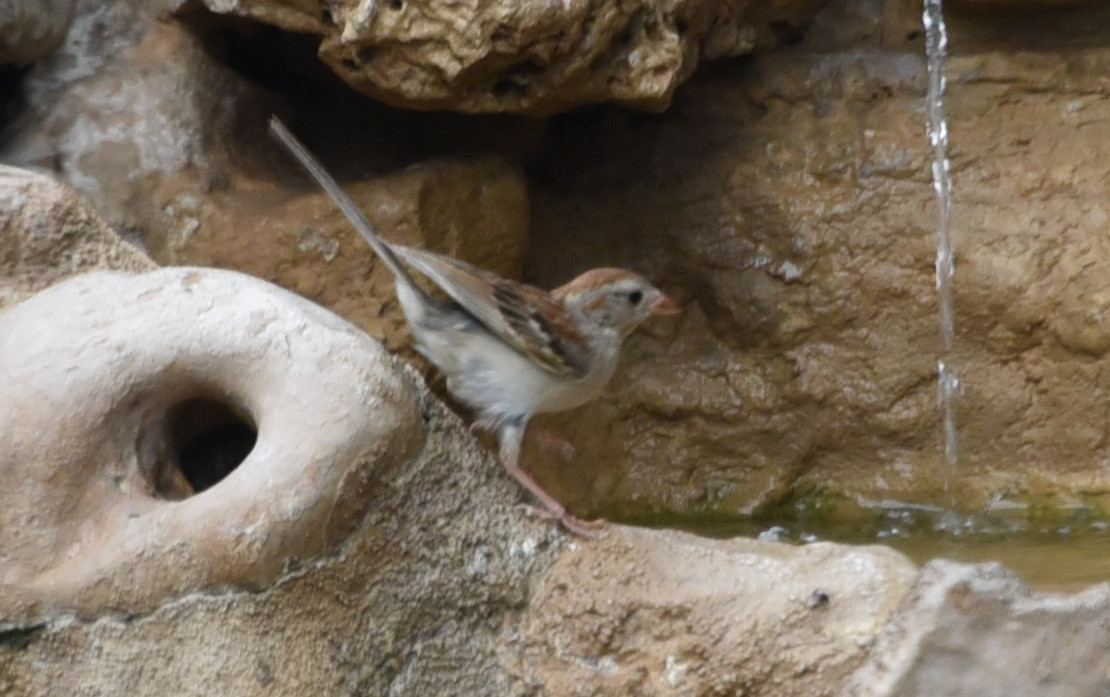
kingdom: Animalia
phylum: Chordata
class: Aves
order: Passeriformes
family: Passerellidae
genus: Spizella
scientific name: Spizella pusilla
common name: Field sparrow
